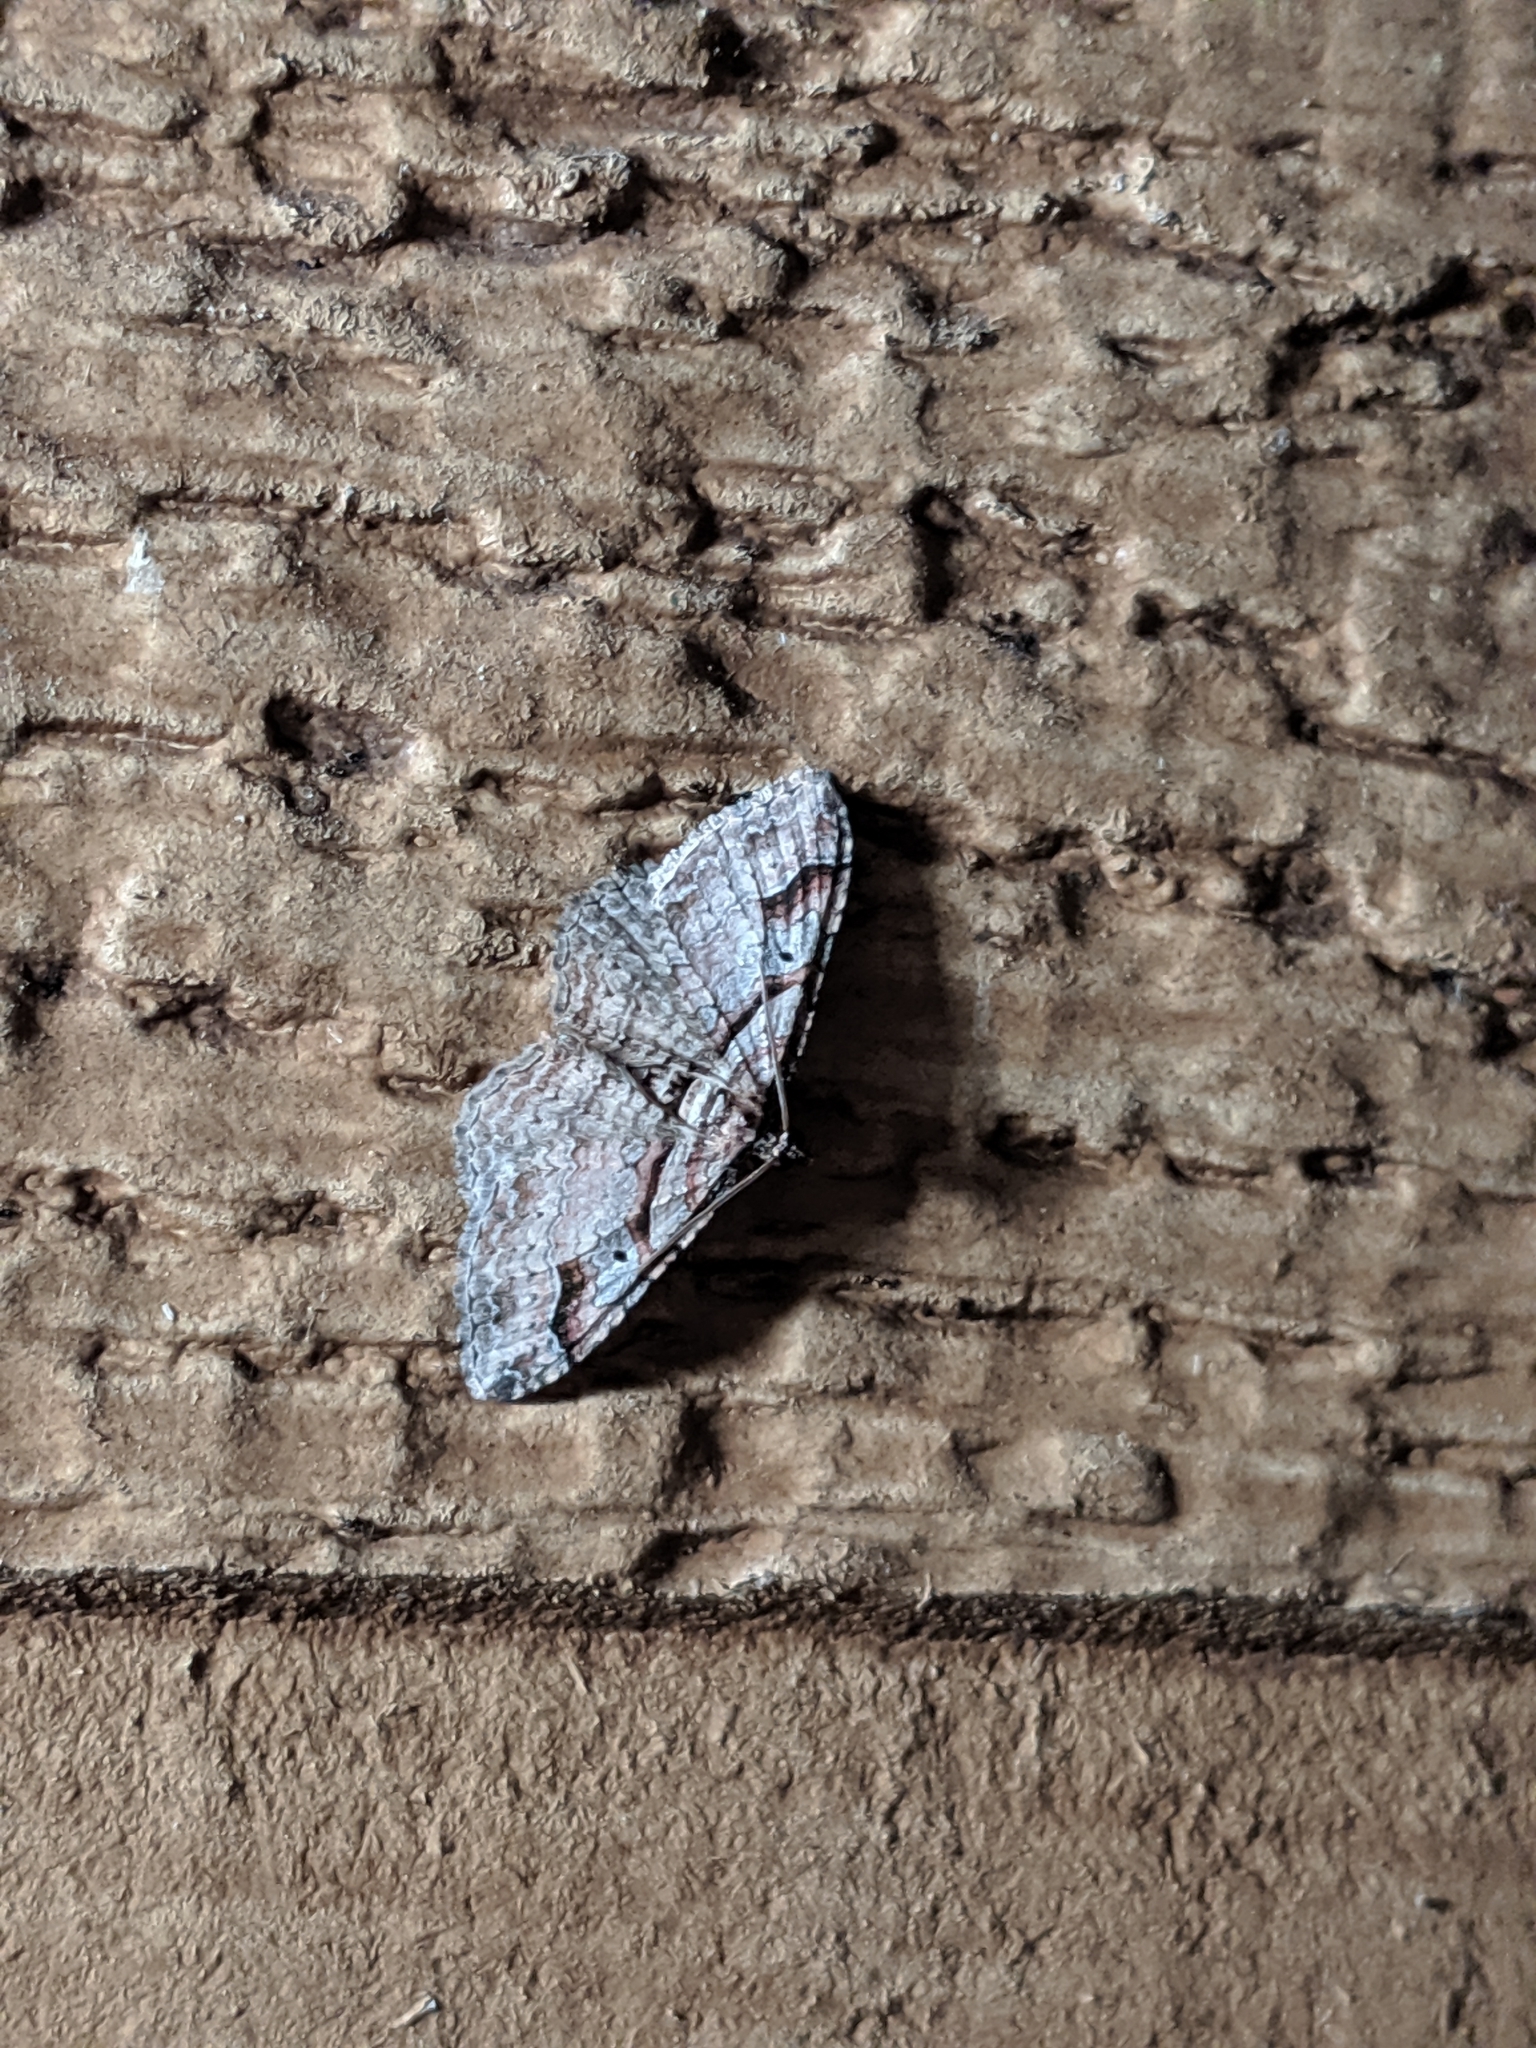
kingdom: Animalia
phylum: Arthropoda
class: Insecta
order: Lepidoptera
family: Geometridae
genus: Costaconvexa
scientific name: Costaconvexa centrostrigaria
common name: Bent-line carpet
